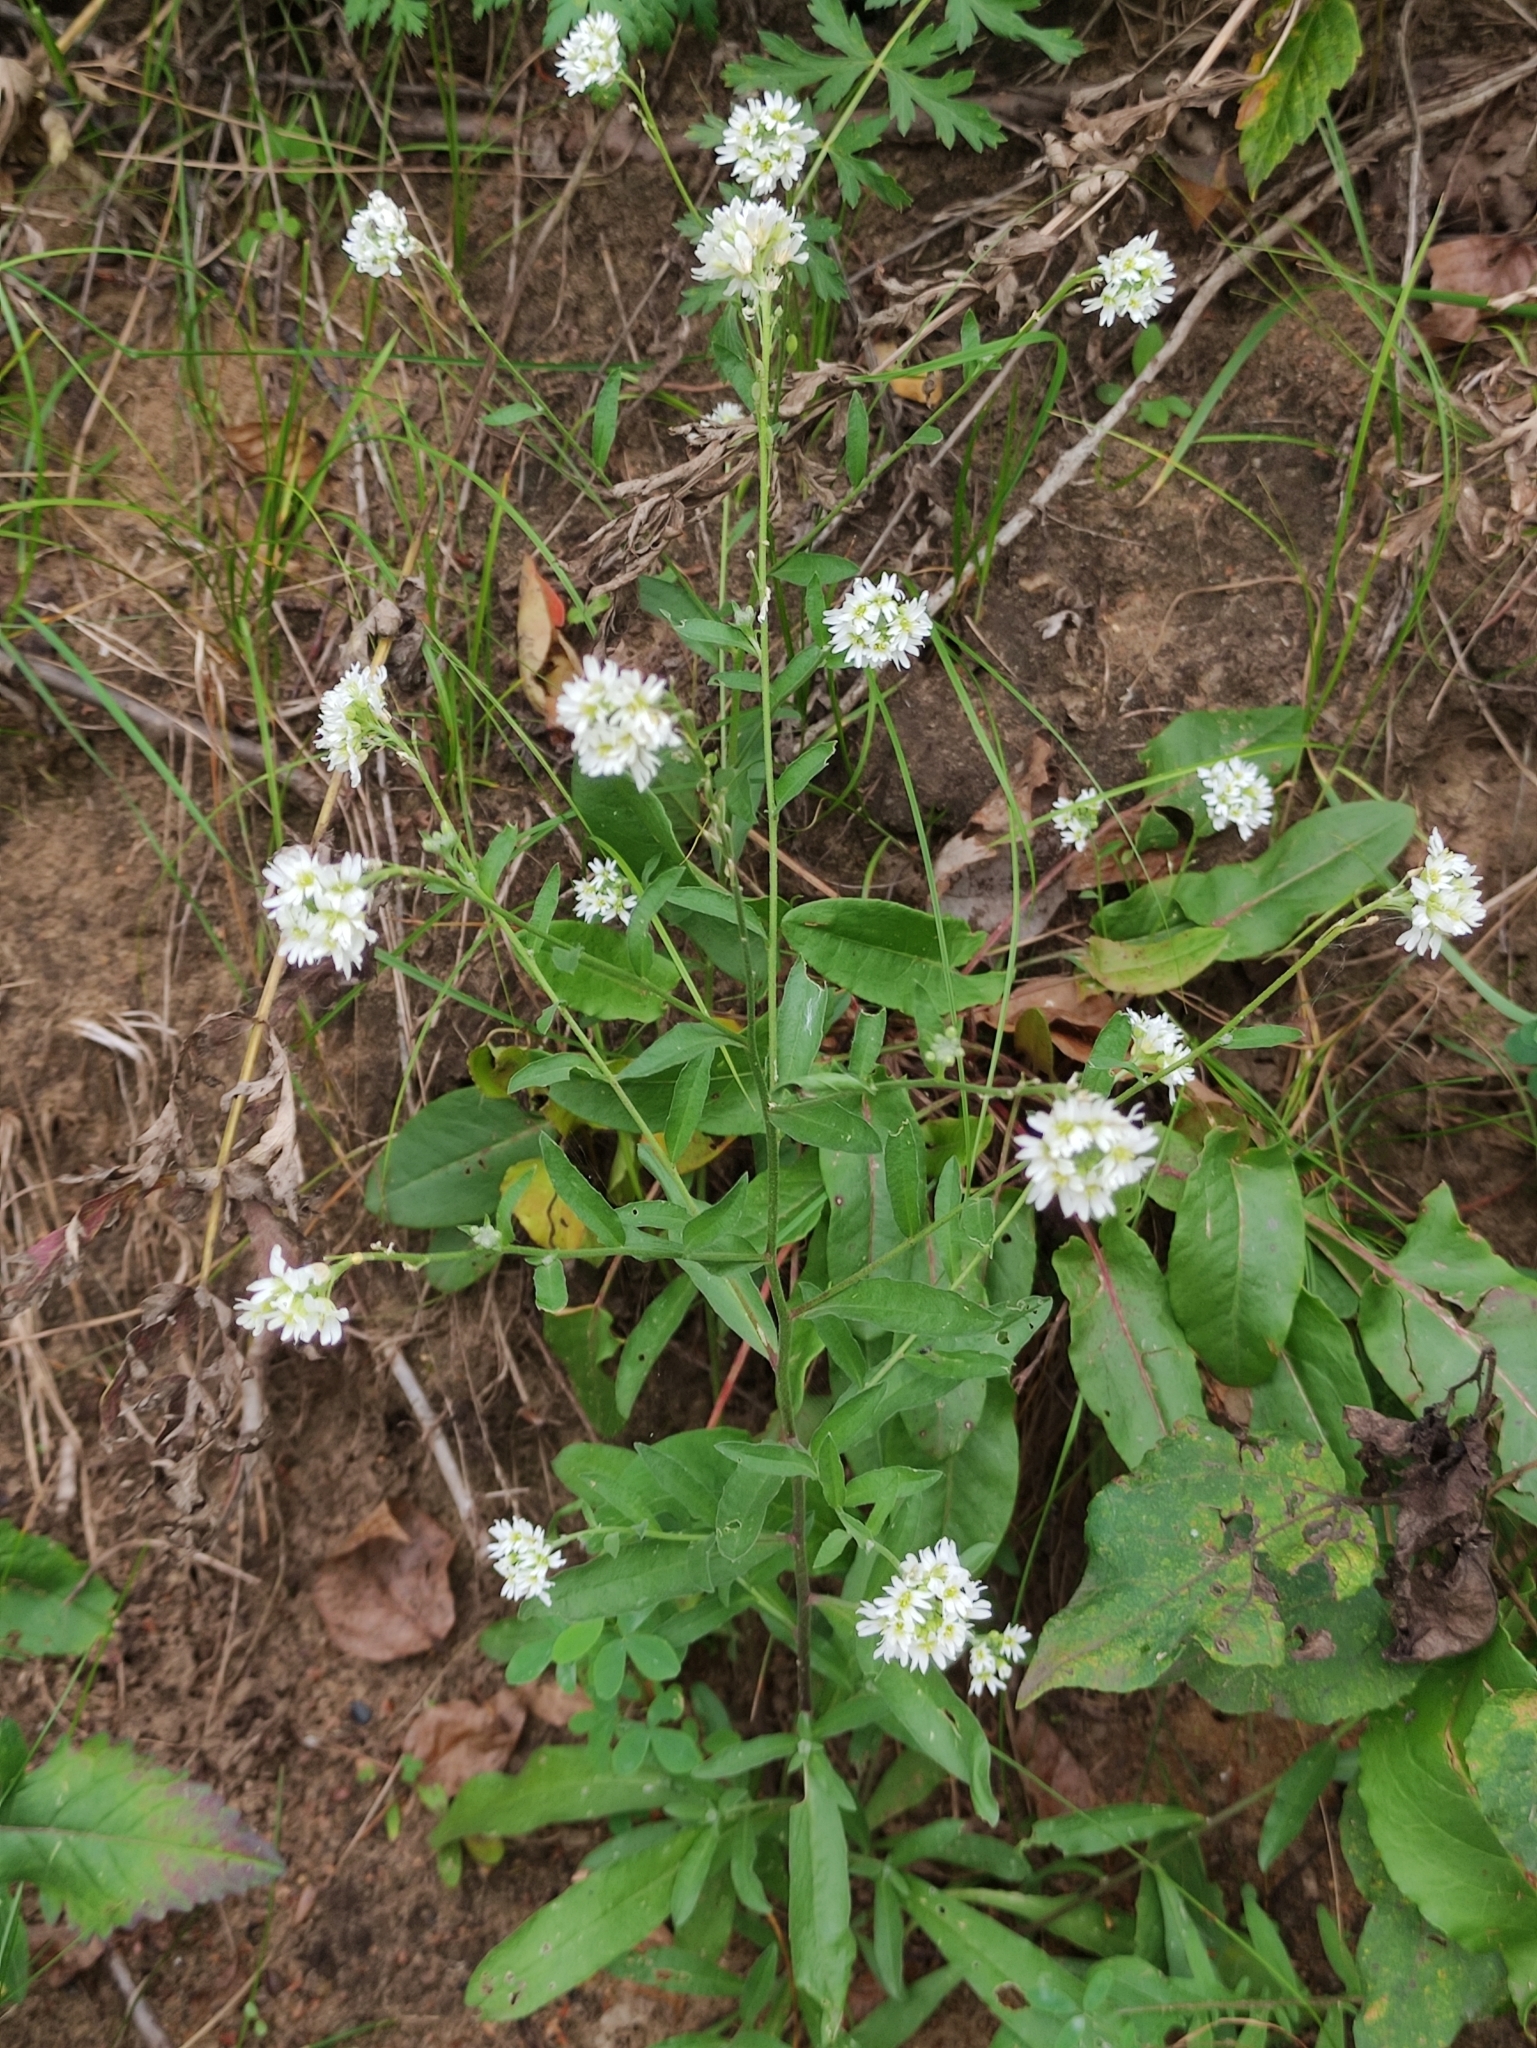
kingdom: Plantae
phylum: Tracheophyta
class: Magnoliopsida
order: Brassicales
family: Brassicaceae
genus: Berteroa
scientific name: Berteroa incana
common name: Hoary alison
